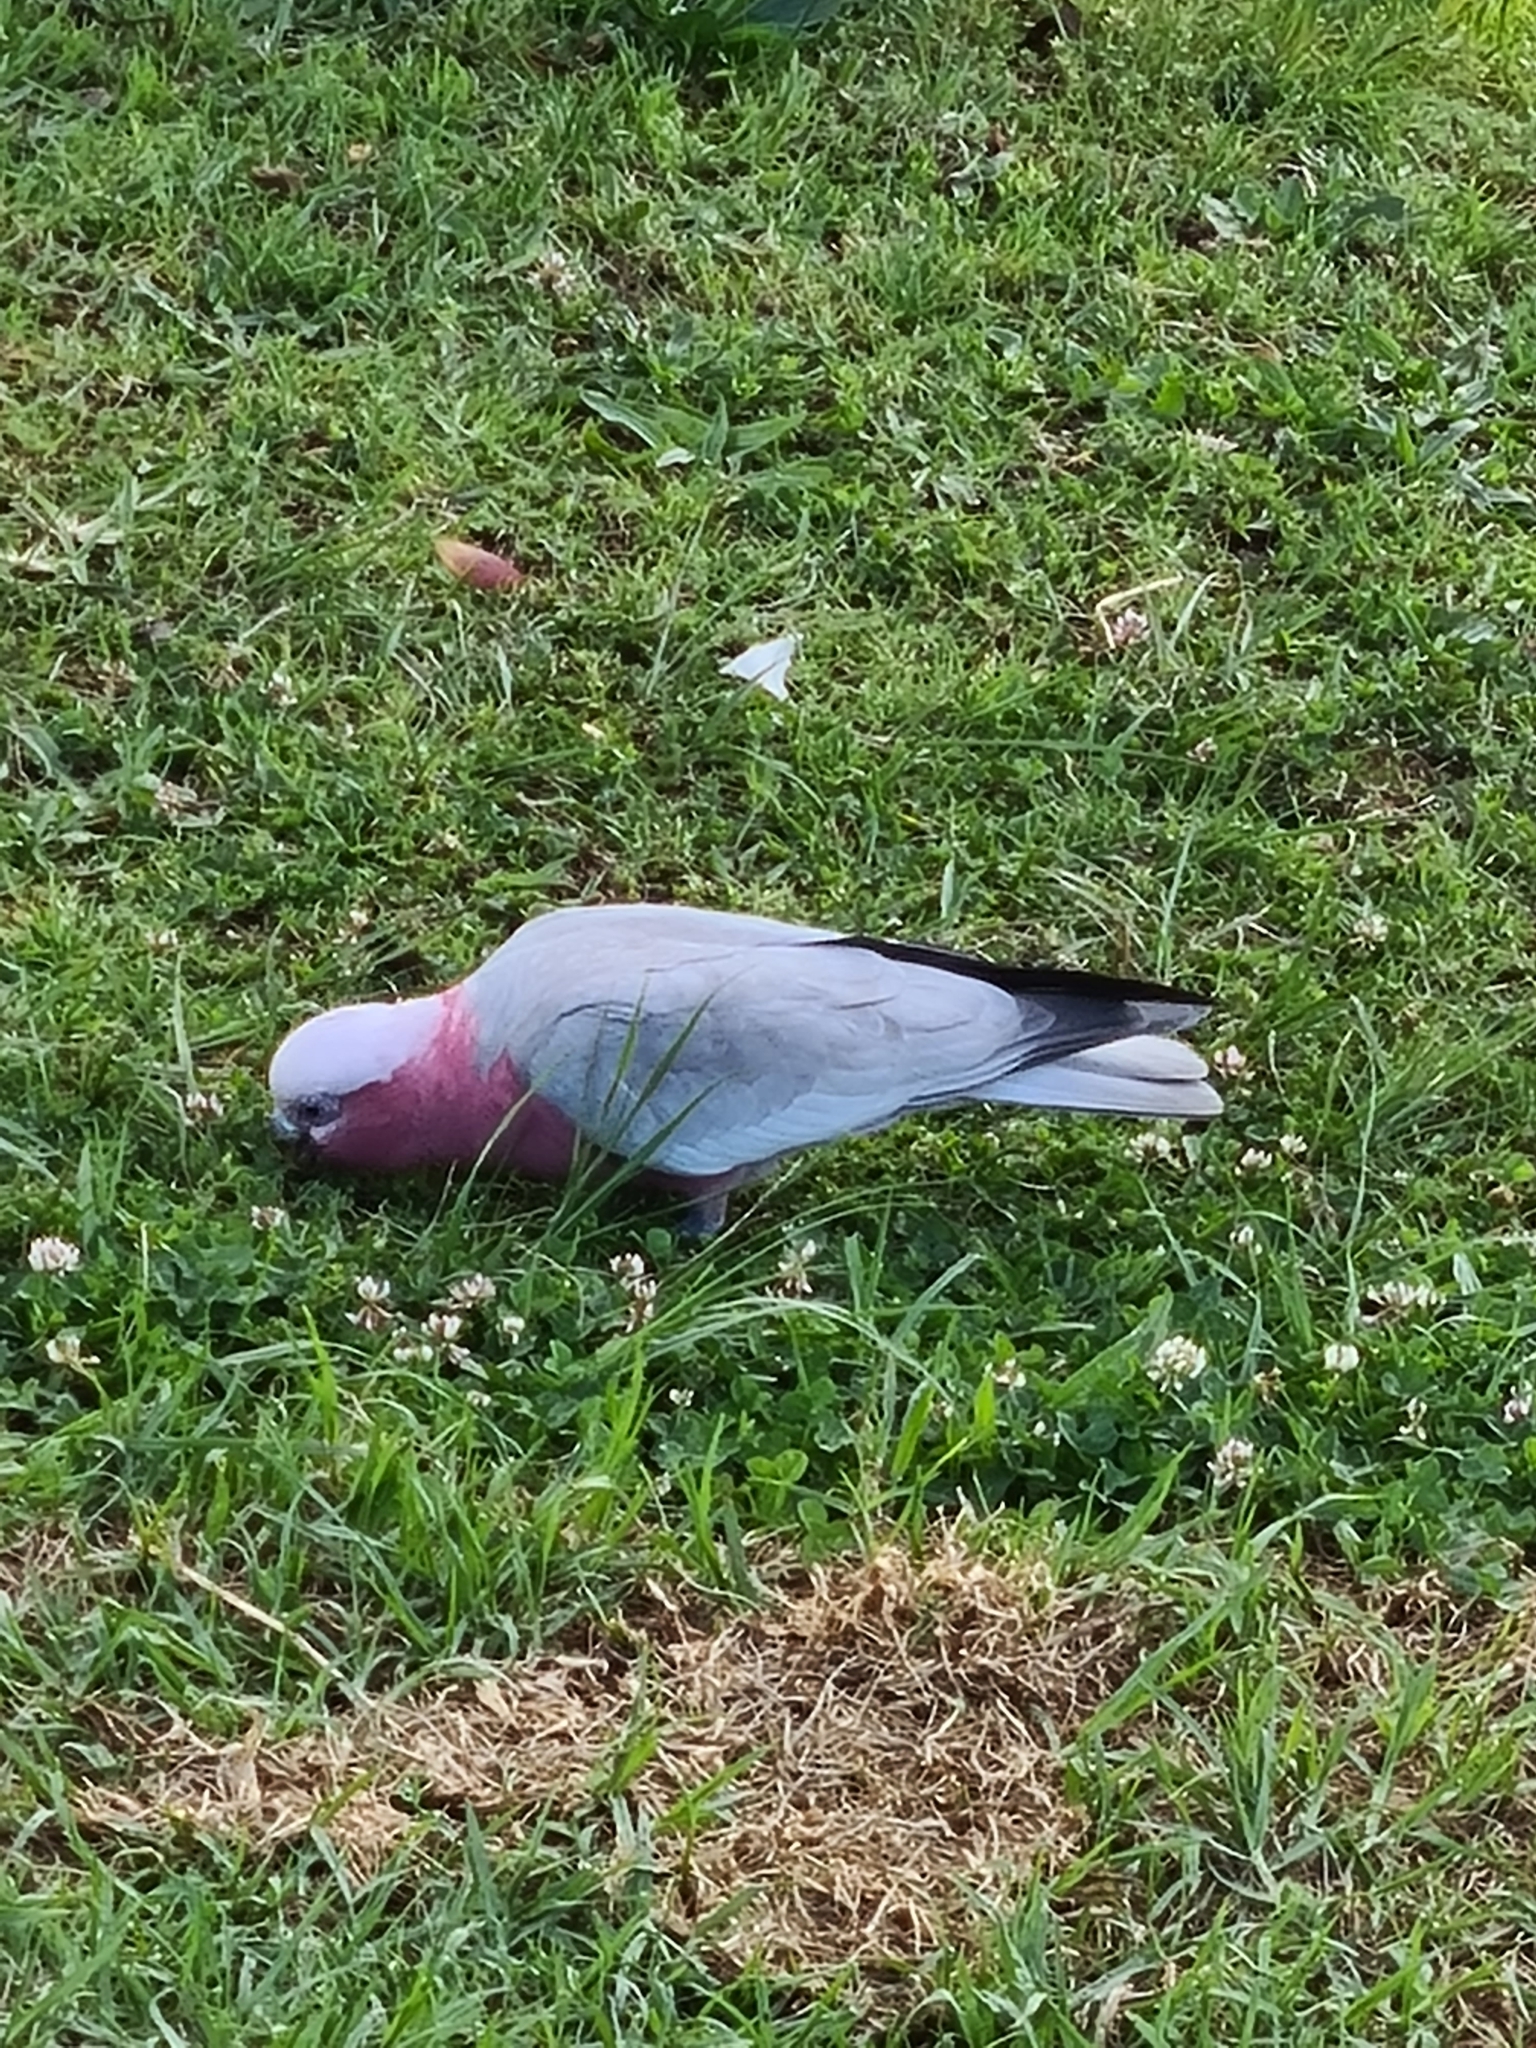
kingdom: Animalia
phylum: Chordata
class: Aves
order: Psittaciformes
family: Psittacidae
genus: Eolophus
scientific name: Eolophus roseicapilla
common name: Galah
